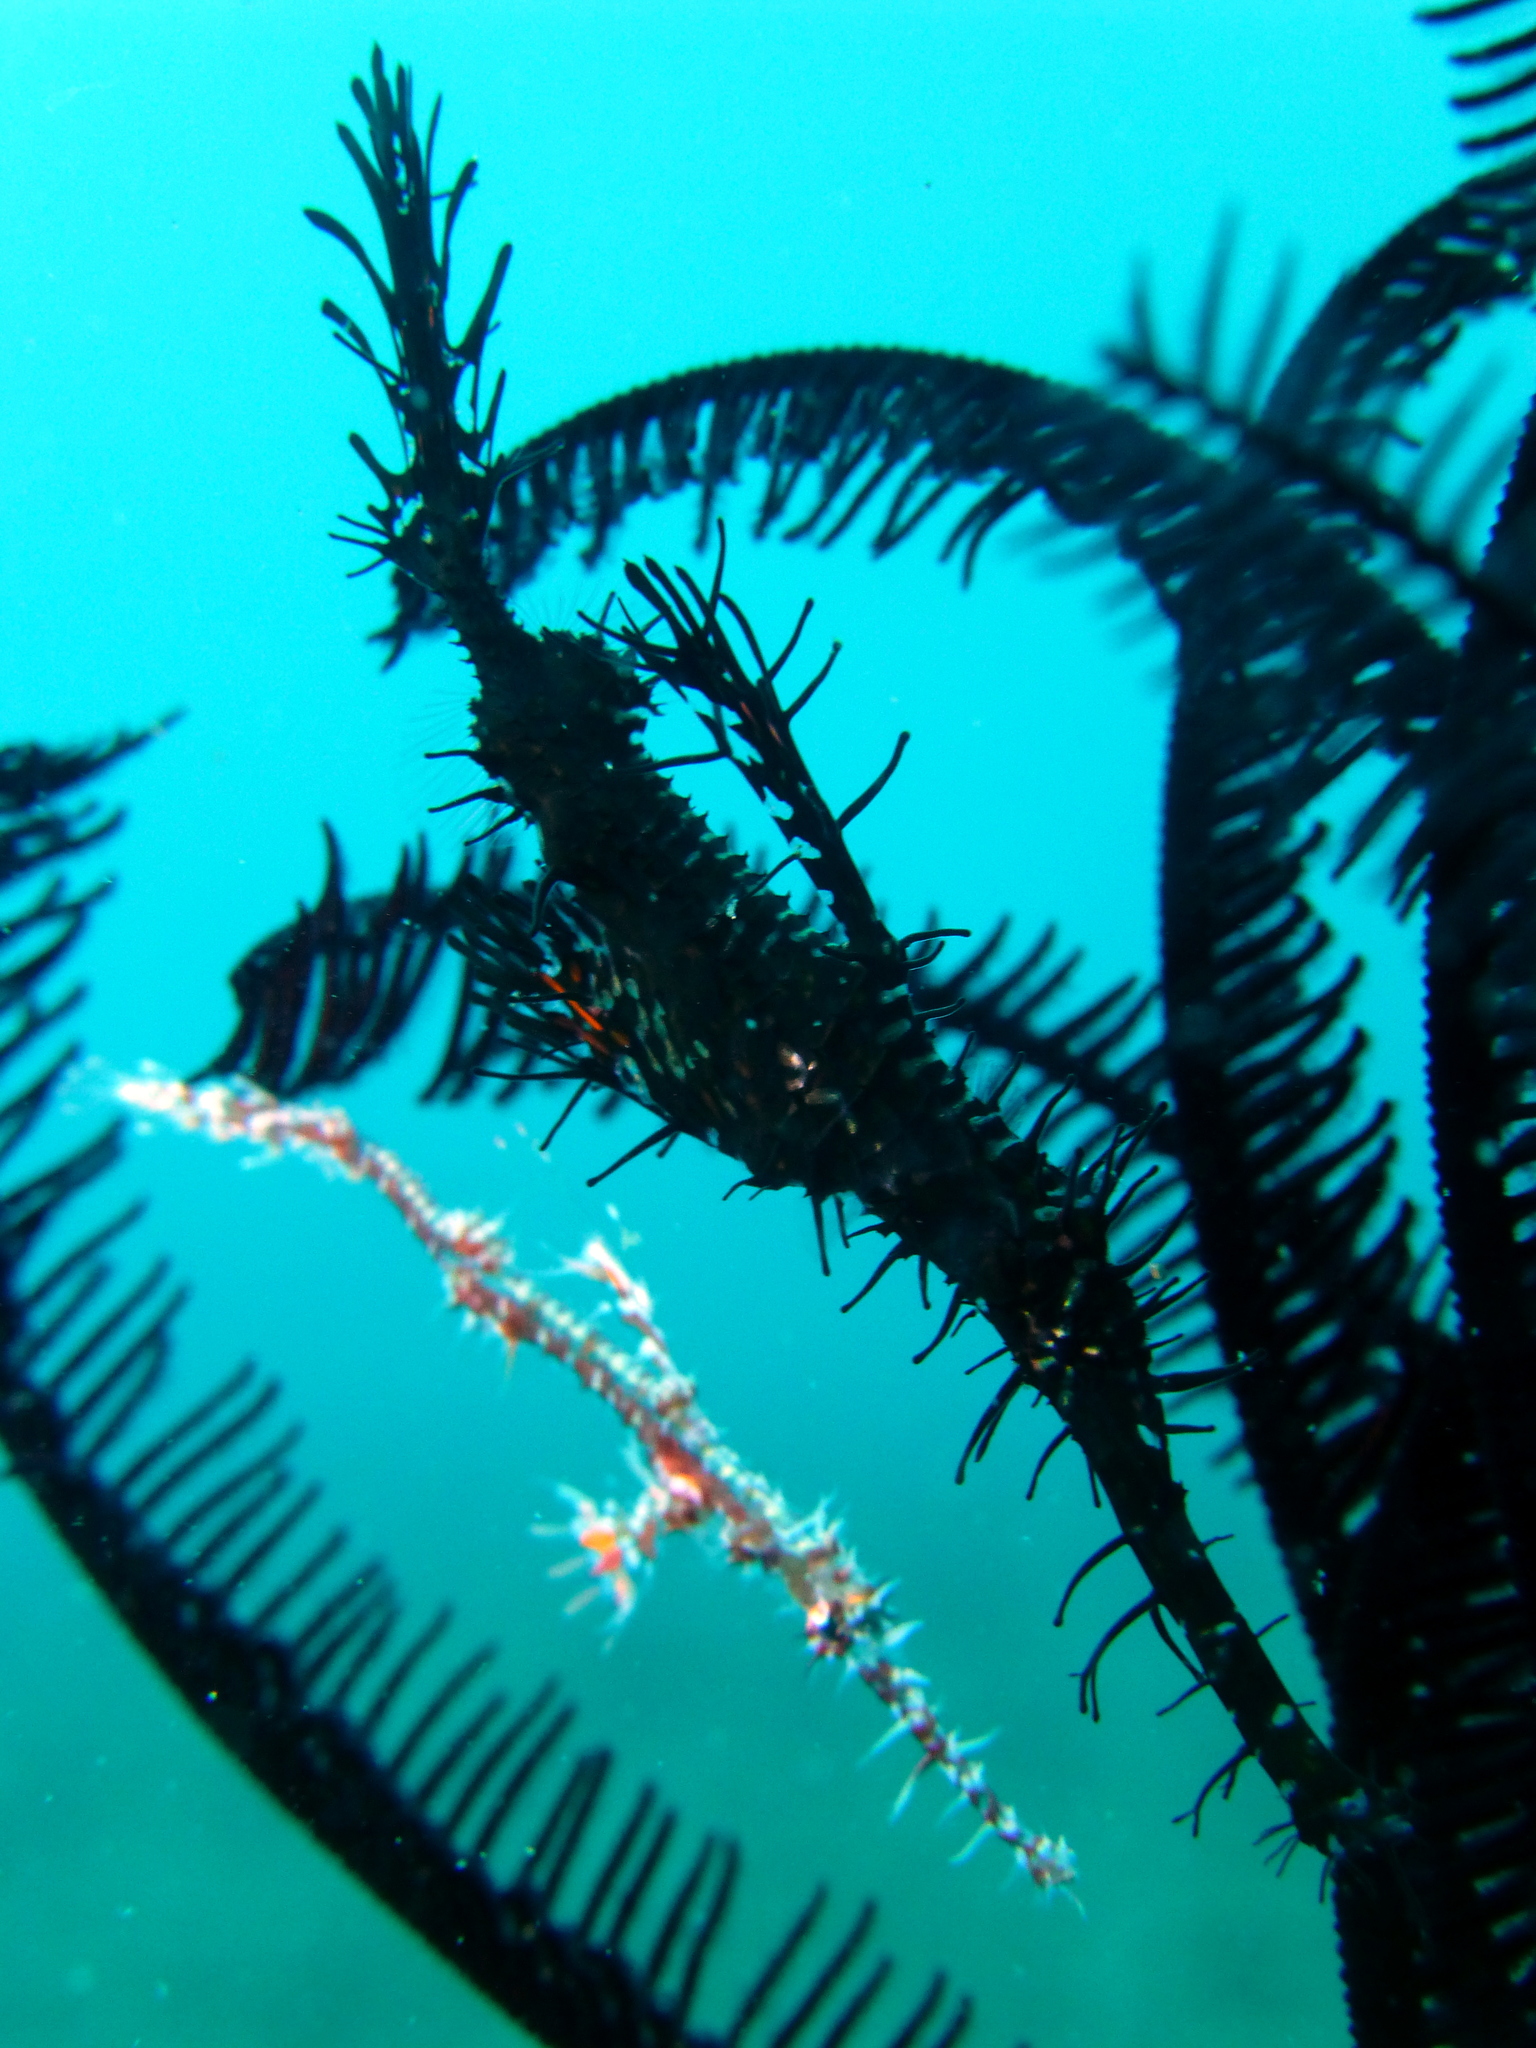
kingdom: Animalia
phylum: Chordata
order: Syngnathiformes
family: Solenostomidae
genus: Solenostomus
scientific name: Solenostomus paradoxus
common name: Ghost pipefish
